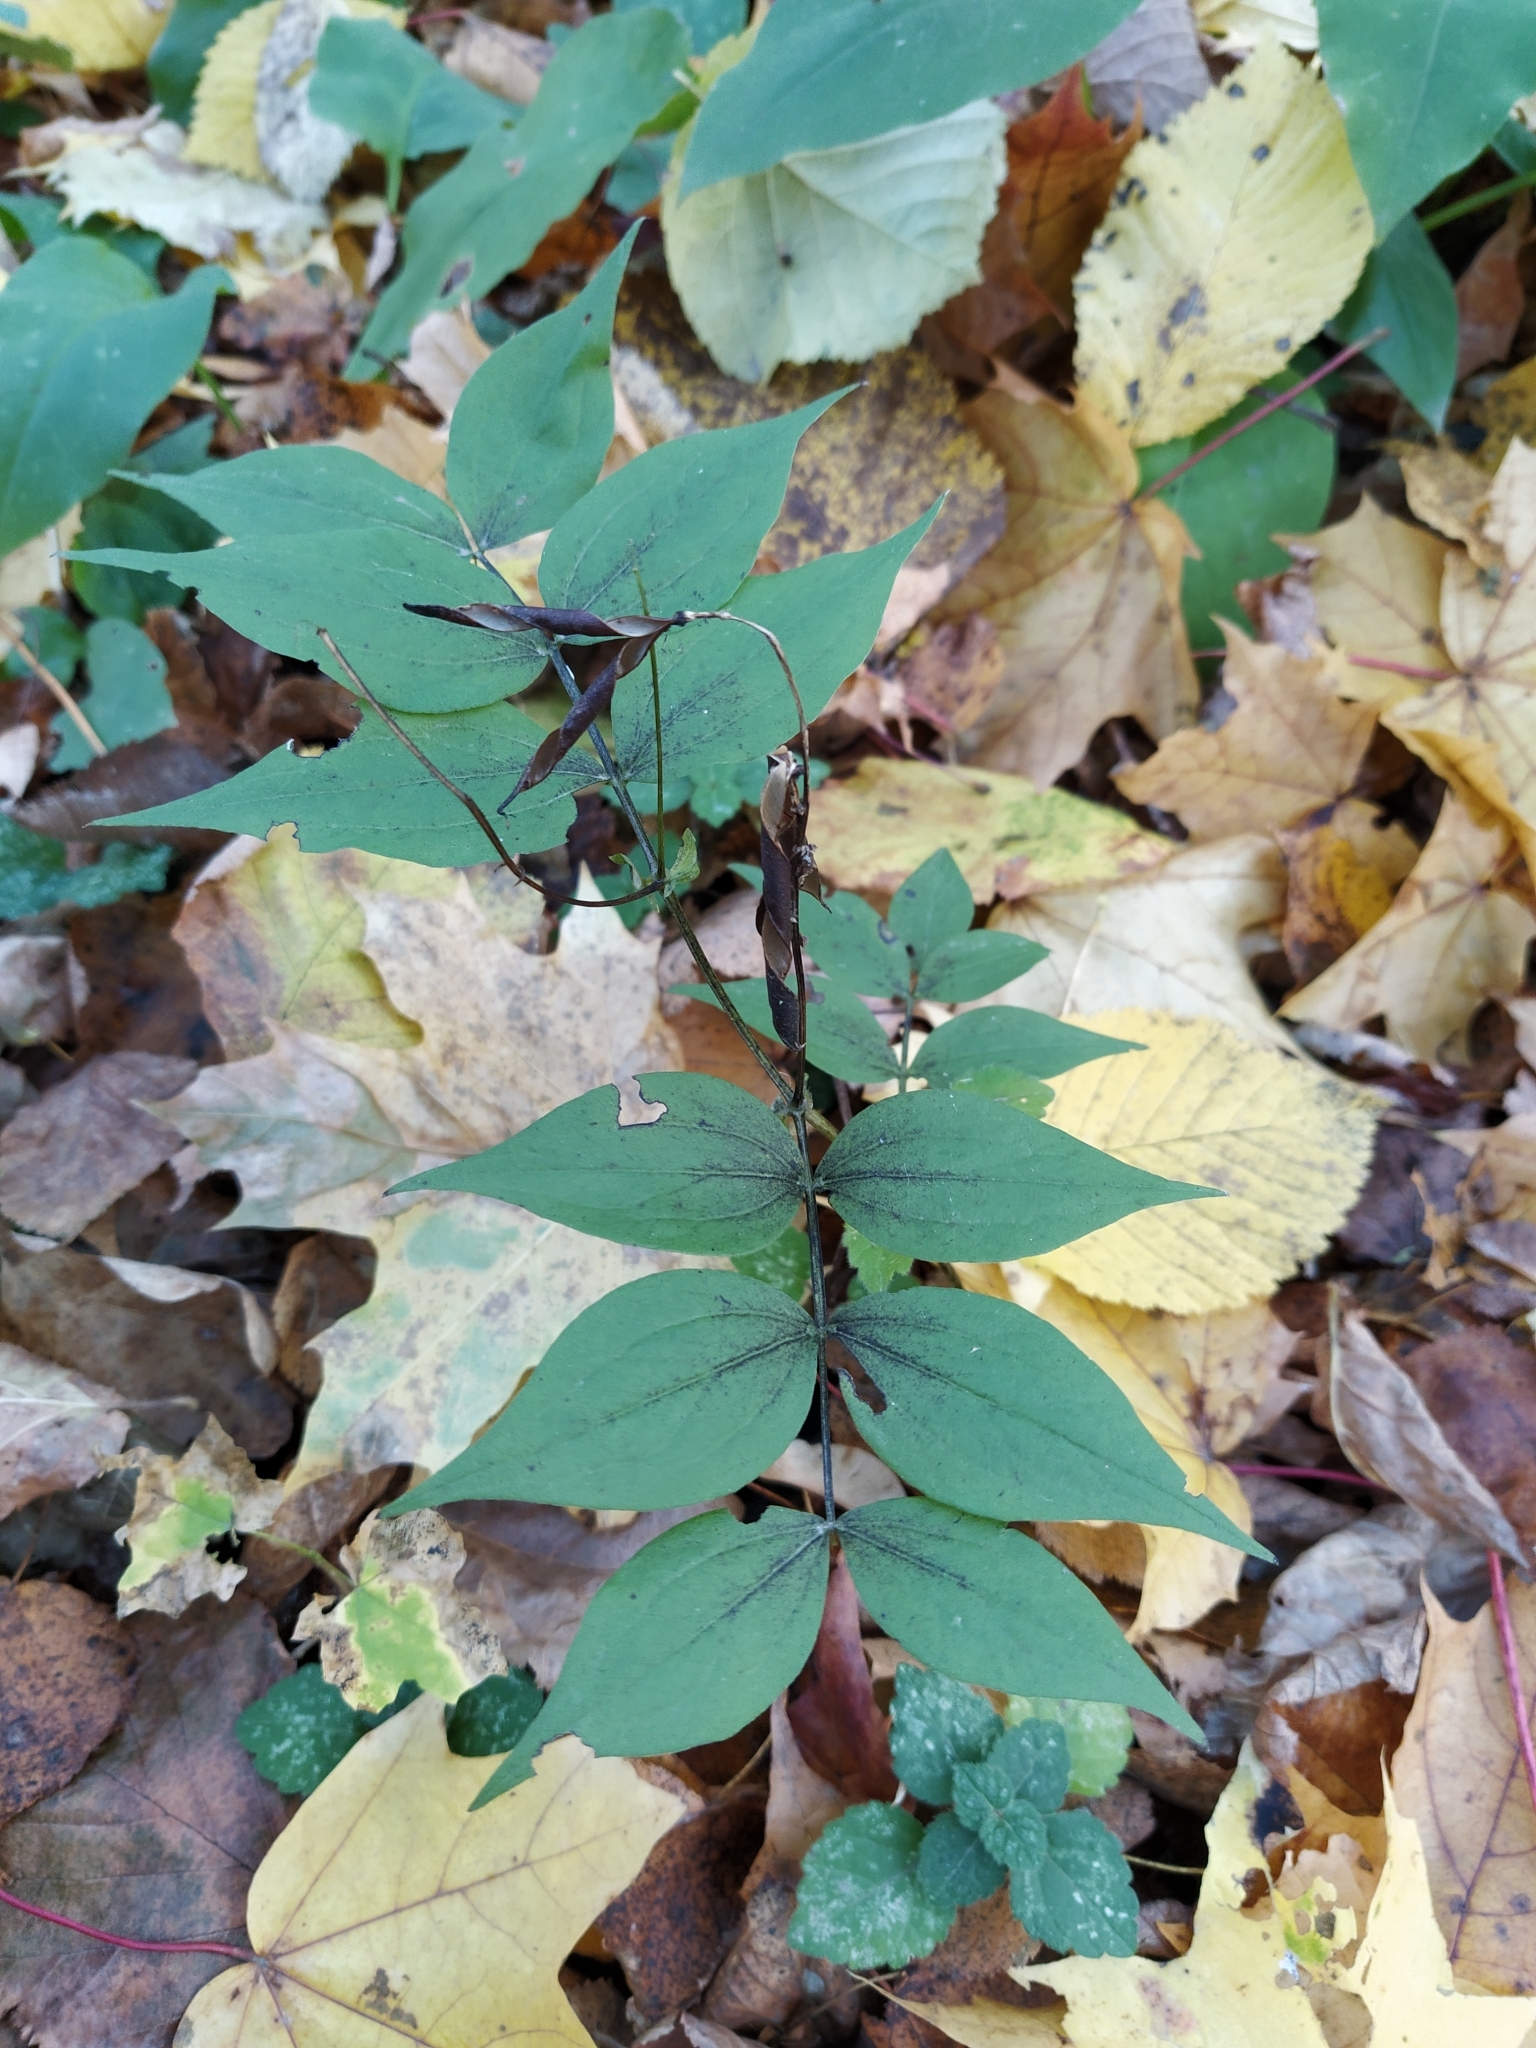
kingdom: Plantae
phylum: Tracheophyta
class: Magnoliopsida
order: Fabales
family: Fabaceae
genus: Lathyrus
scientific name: Lathyrus vernus
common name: Spring pea
